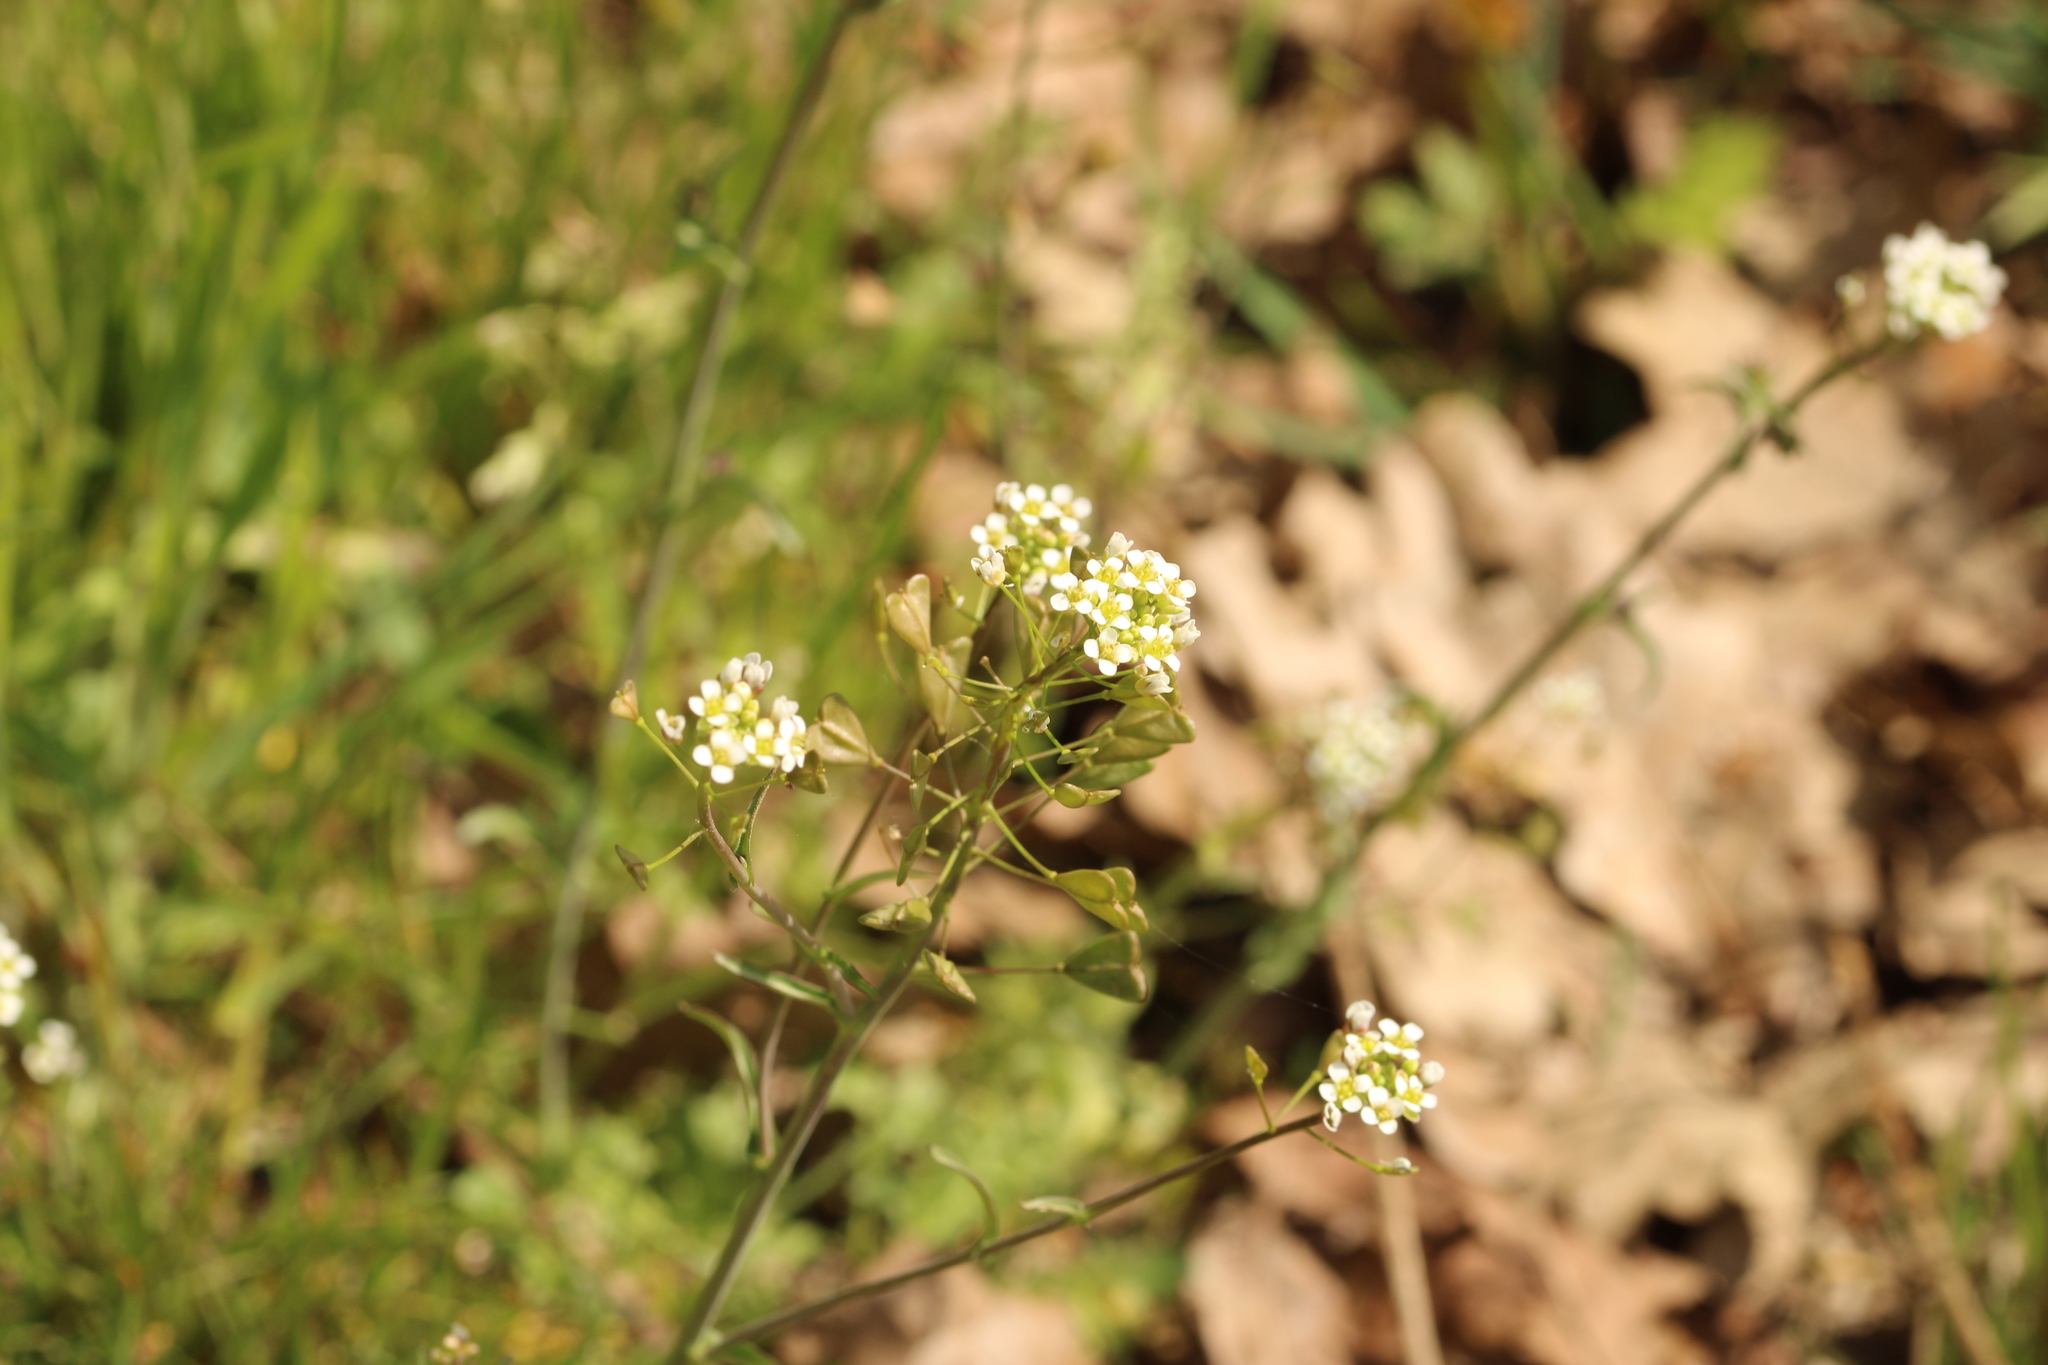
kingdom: Plantae
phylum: Tracheophyta
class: Magnoliopsida
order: Brassicales
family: Brassicaceae
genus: Capsella
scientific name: Capsella bursa-pastoris
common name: Shepherd's purse
